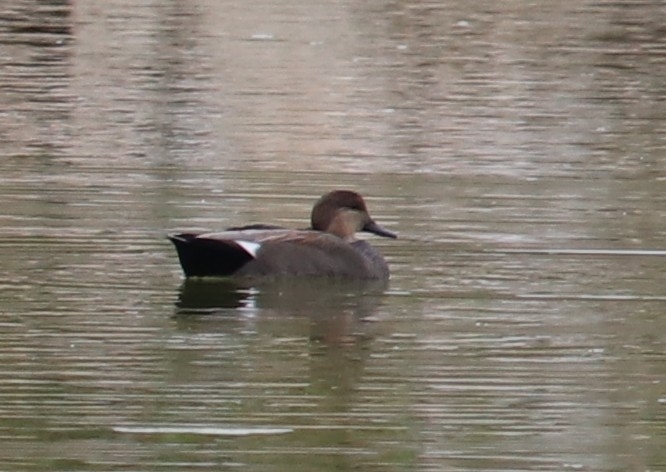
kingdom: Animalia
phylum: Chordata
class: Aves
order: Anseriformes
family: Anatidae
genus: Mareca
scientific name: Mareca strepera
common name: Gadwall
